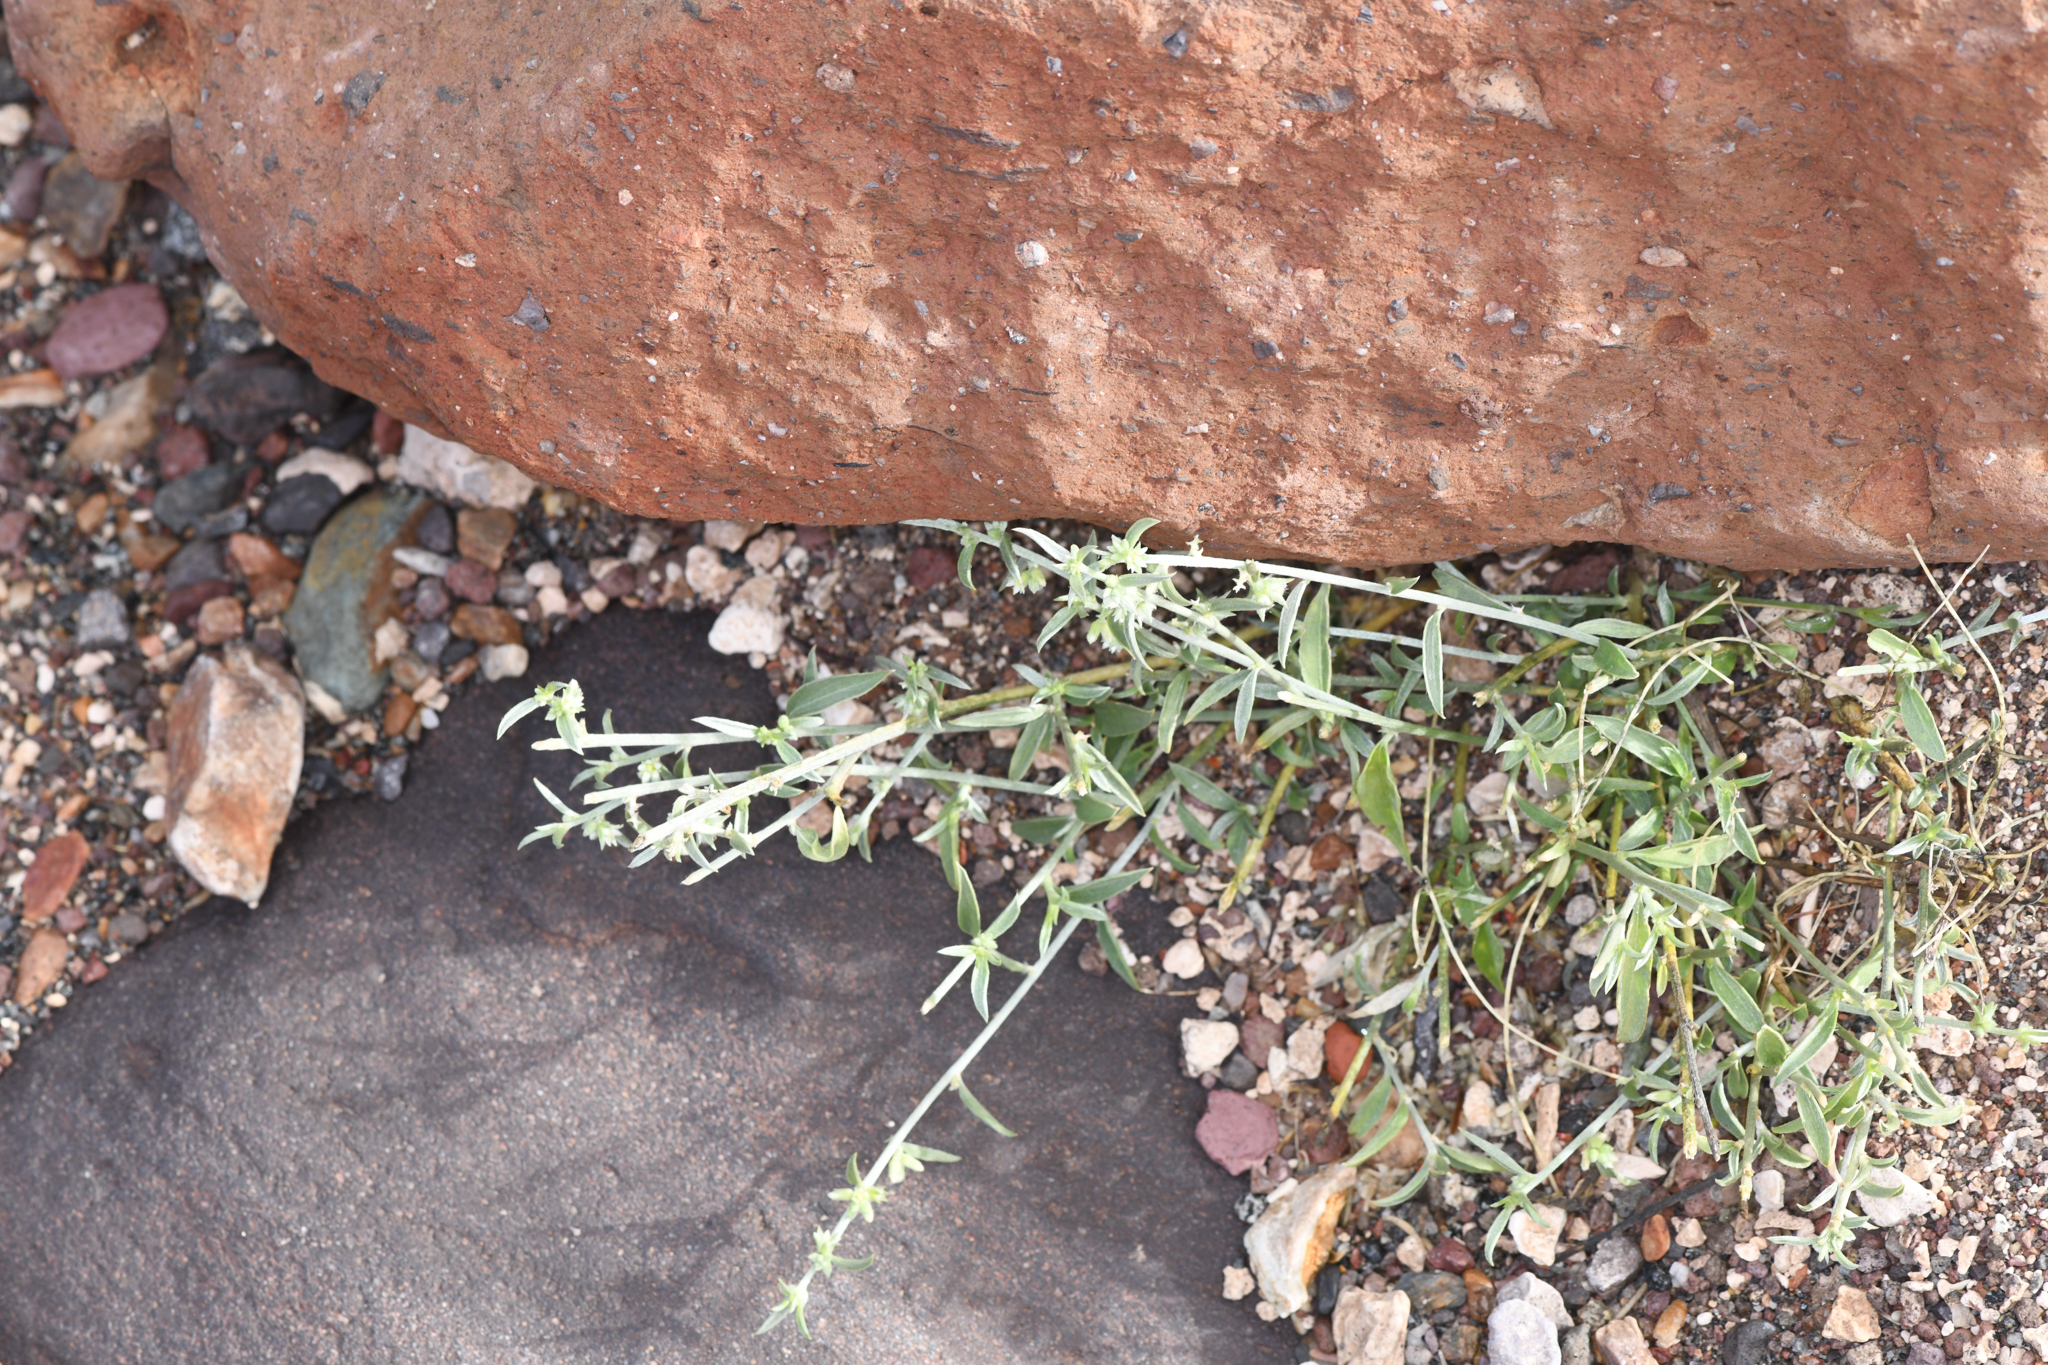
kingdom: Plantae
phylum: Tracheophyta
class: Magnoliopsida
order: Malpighiales
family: Euphorbiaceae
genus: Ditaxis
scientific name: Ditaxis lanceolata
